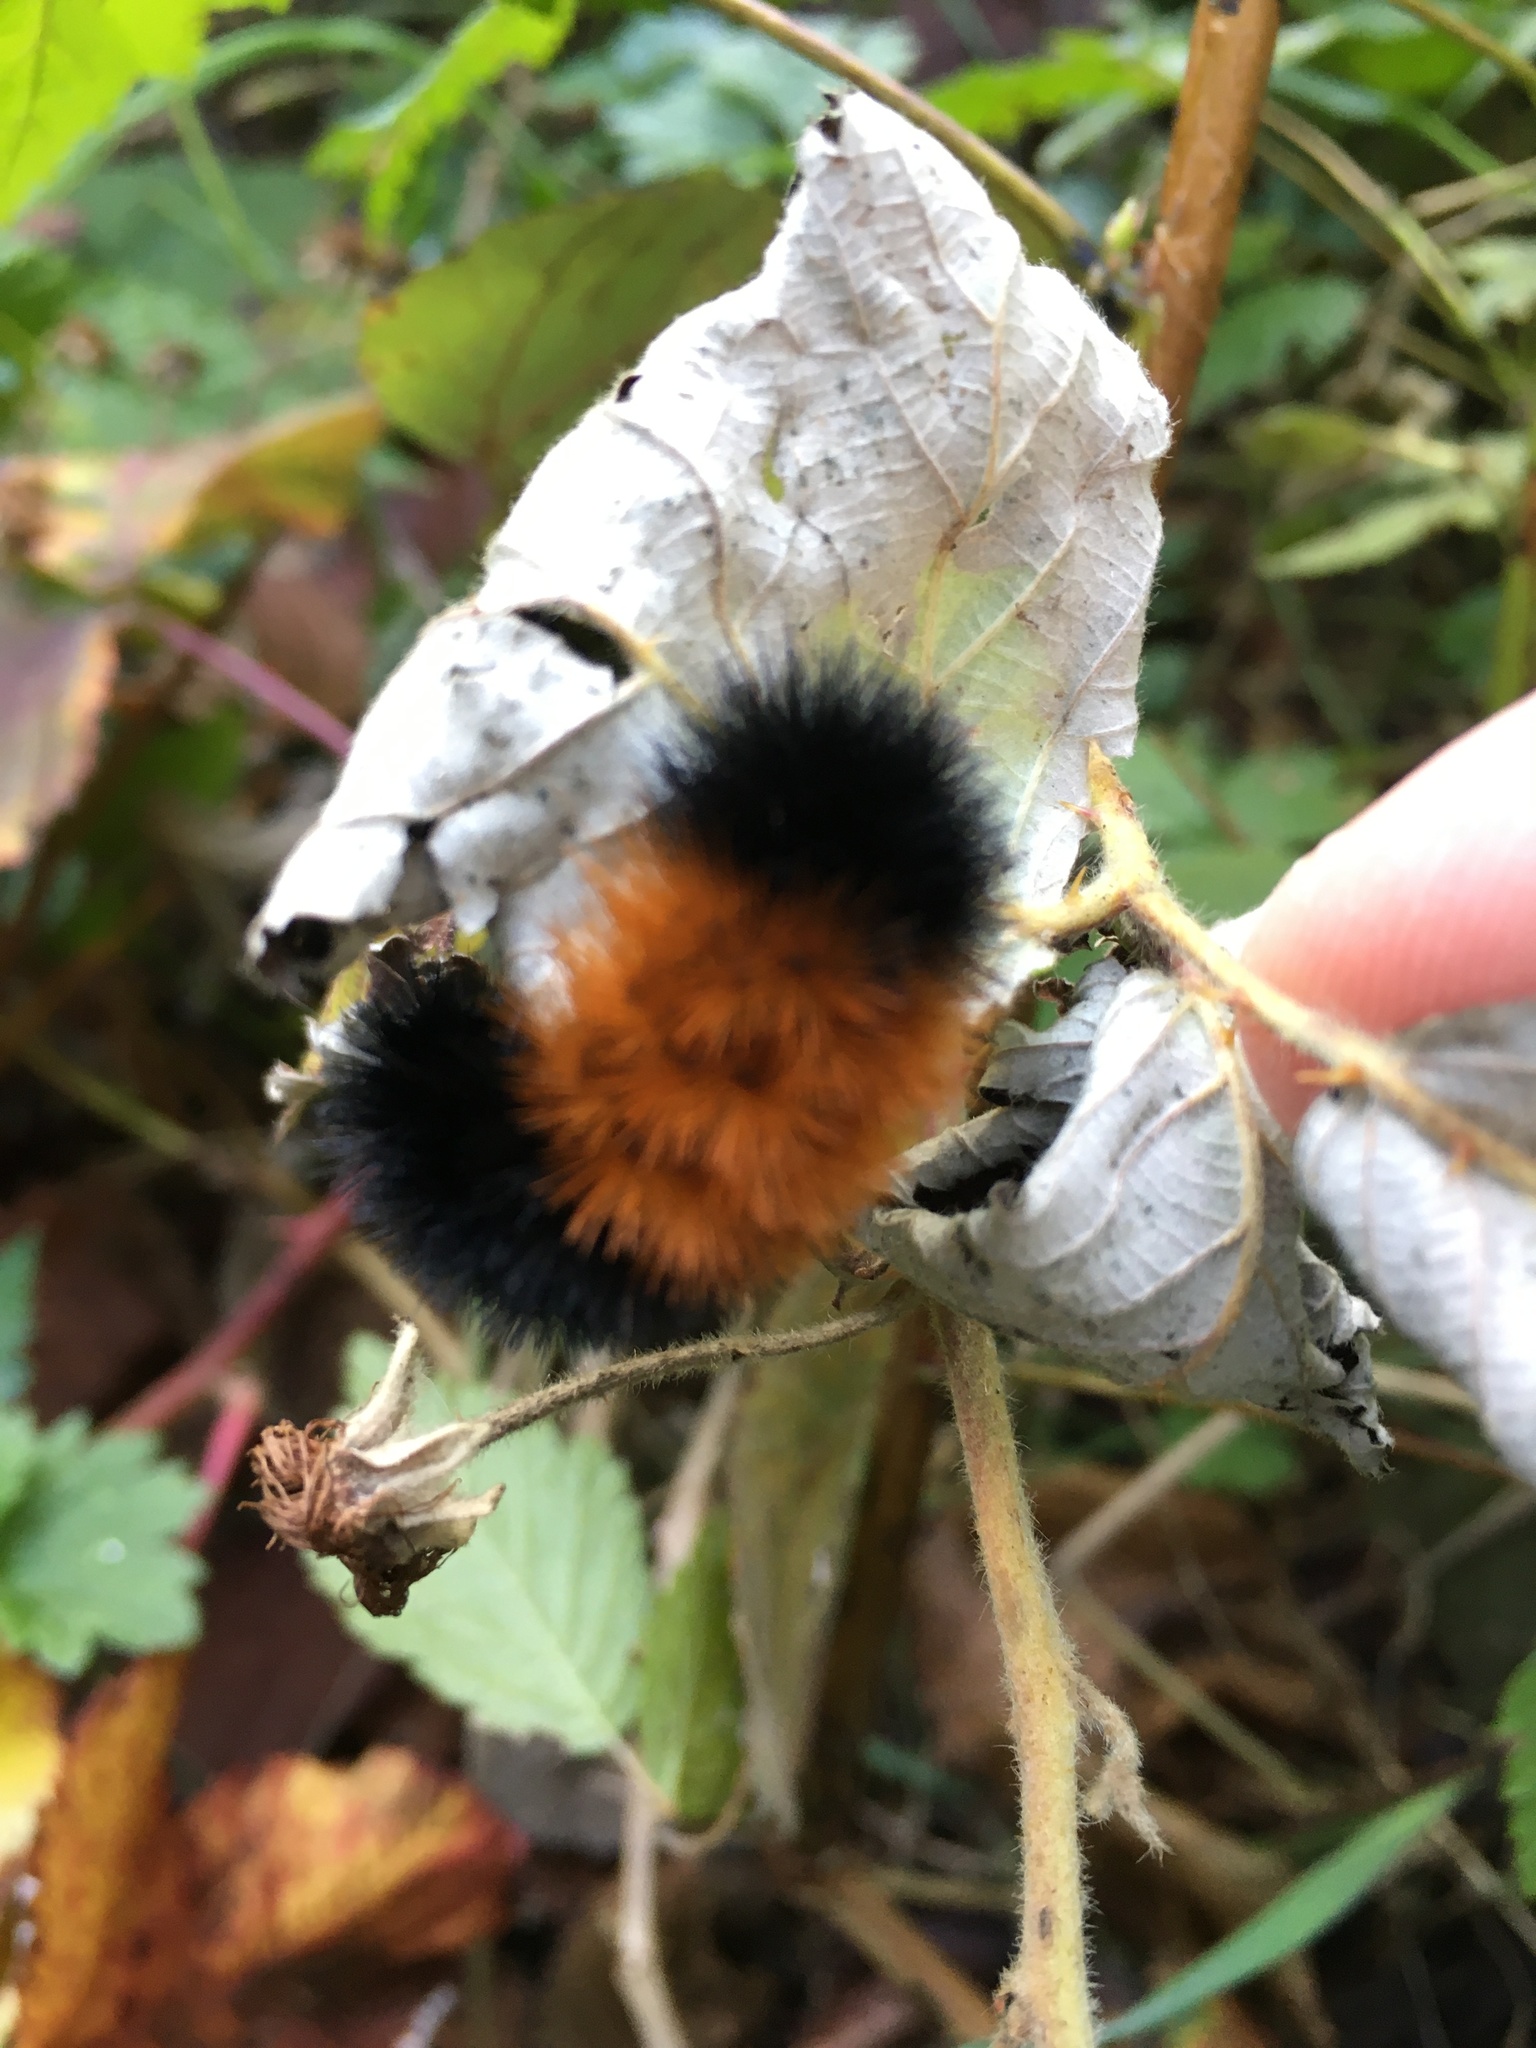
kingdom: Animalia
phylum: Arthropoda
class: Insecta
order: Lepidoptera
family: Erebidae
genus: Pyrrharctia
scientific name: Pyrrharctia isabella
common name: Isabella tiger moth
